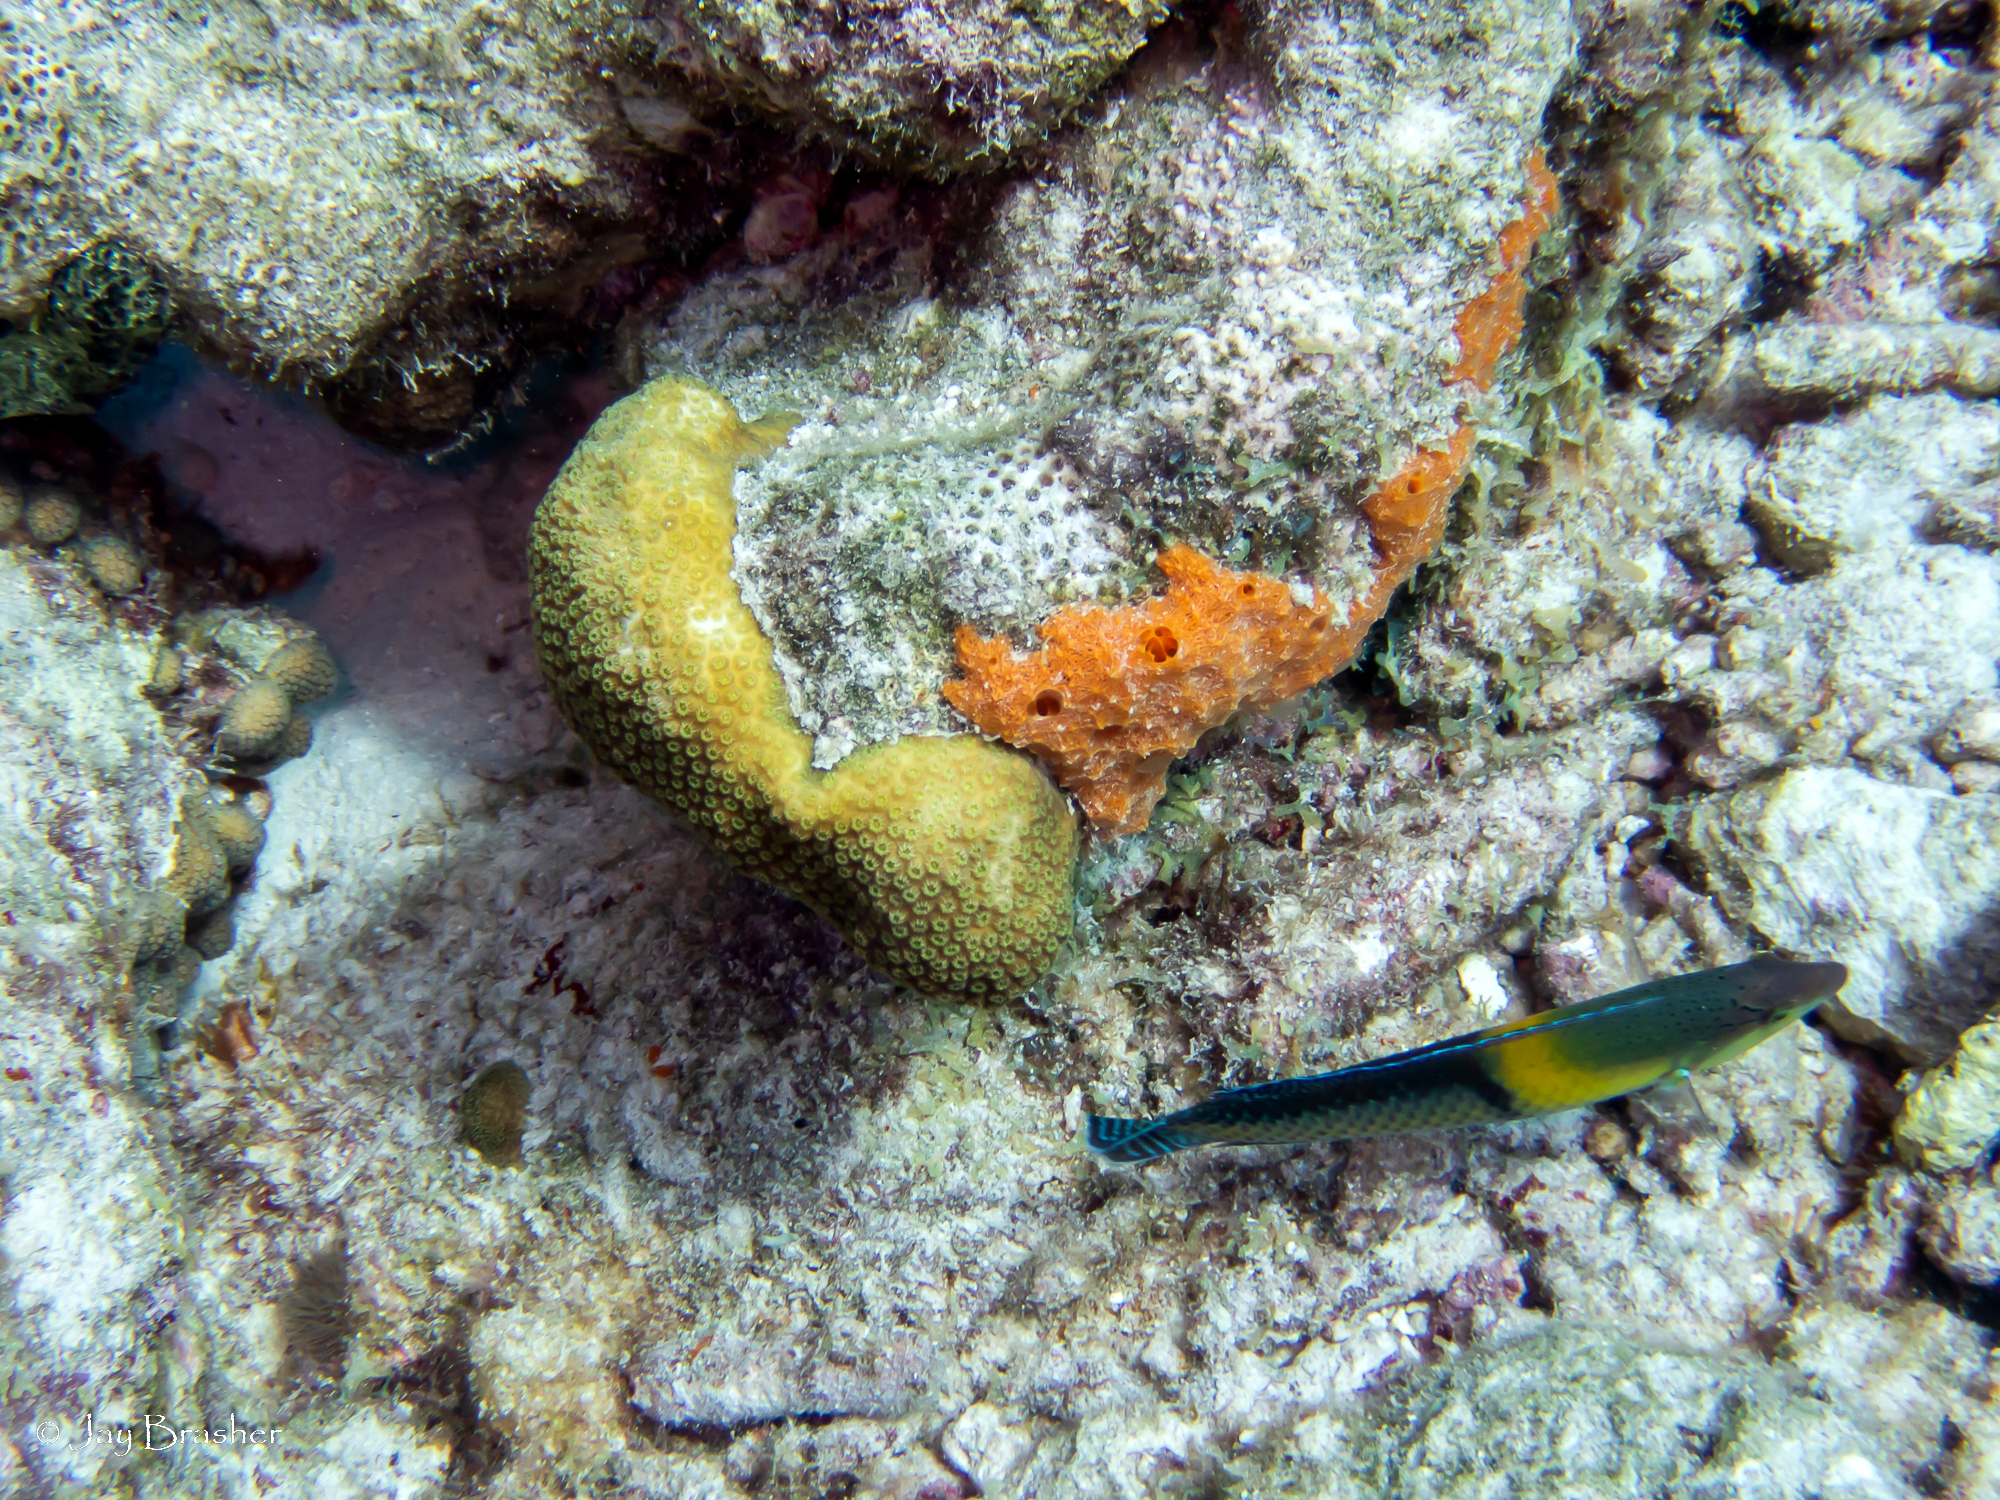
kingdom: Animalia
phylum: Chordata
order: Perciformes
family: Labridae
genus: Halichoeres
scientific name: Halichoeres garnoti
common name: Yellowhead wrasse
